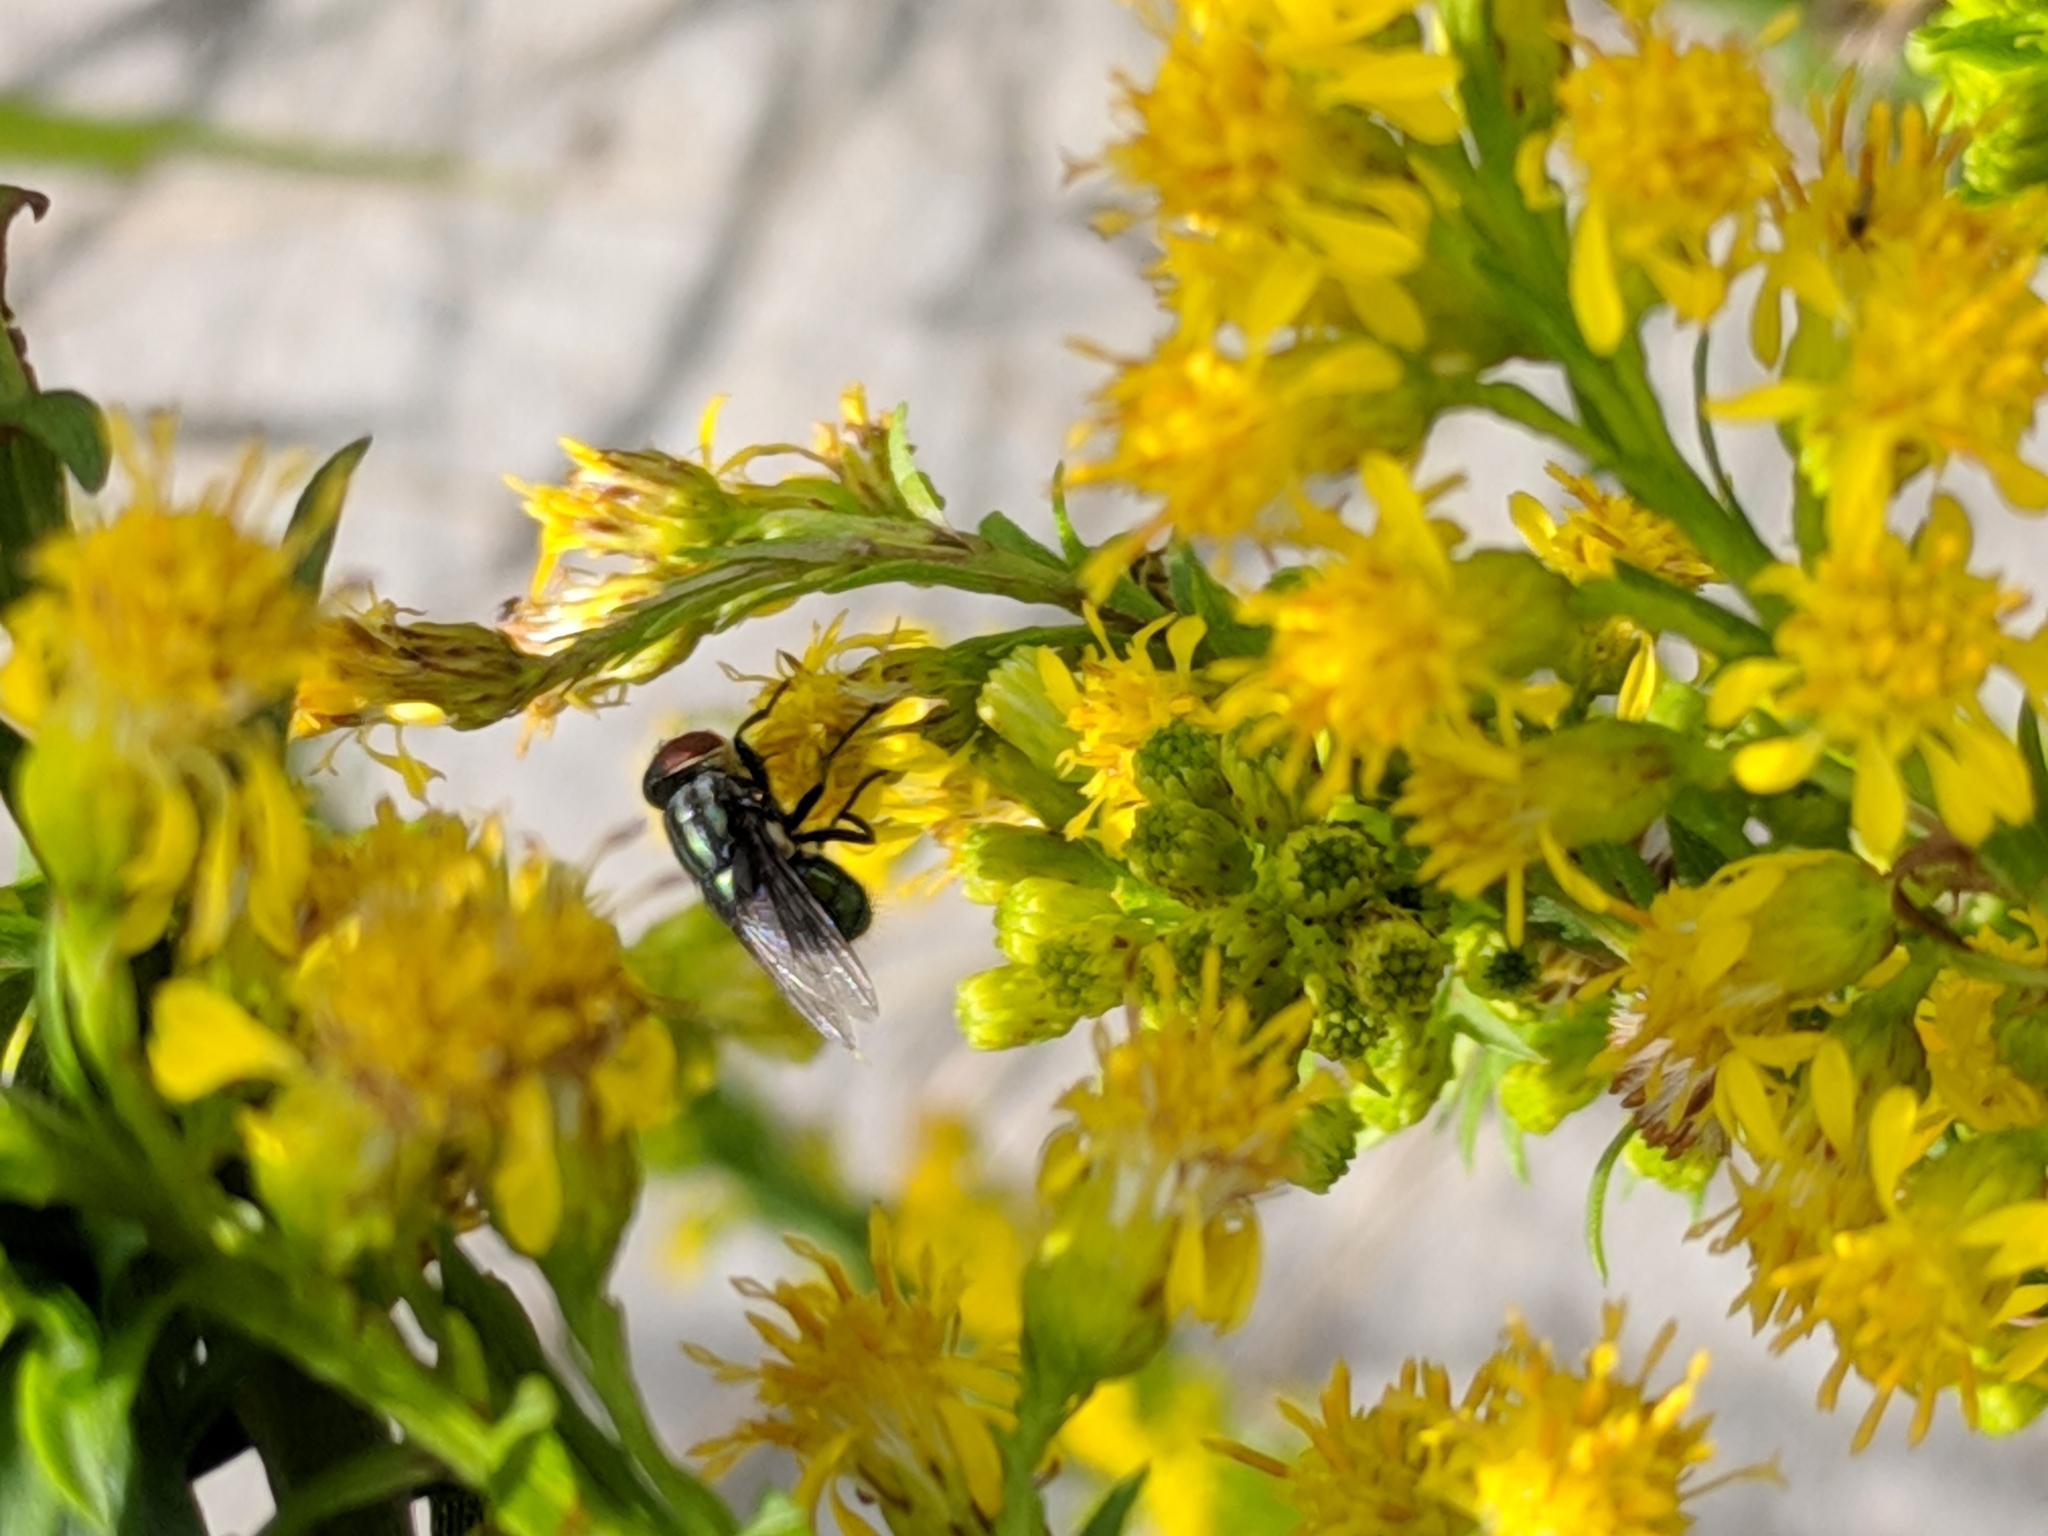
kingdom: Animalia
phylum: Arthropoda
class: Insecta
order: Diptera
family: Calliphoridae
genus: Cochliomyia
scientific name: Cochliomyia macellaria
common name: Secondary screwworm
